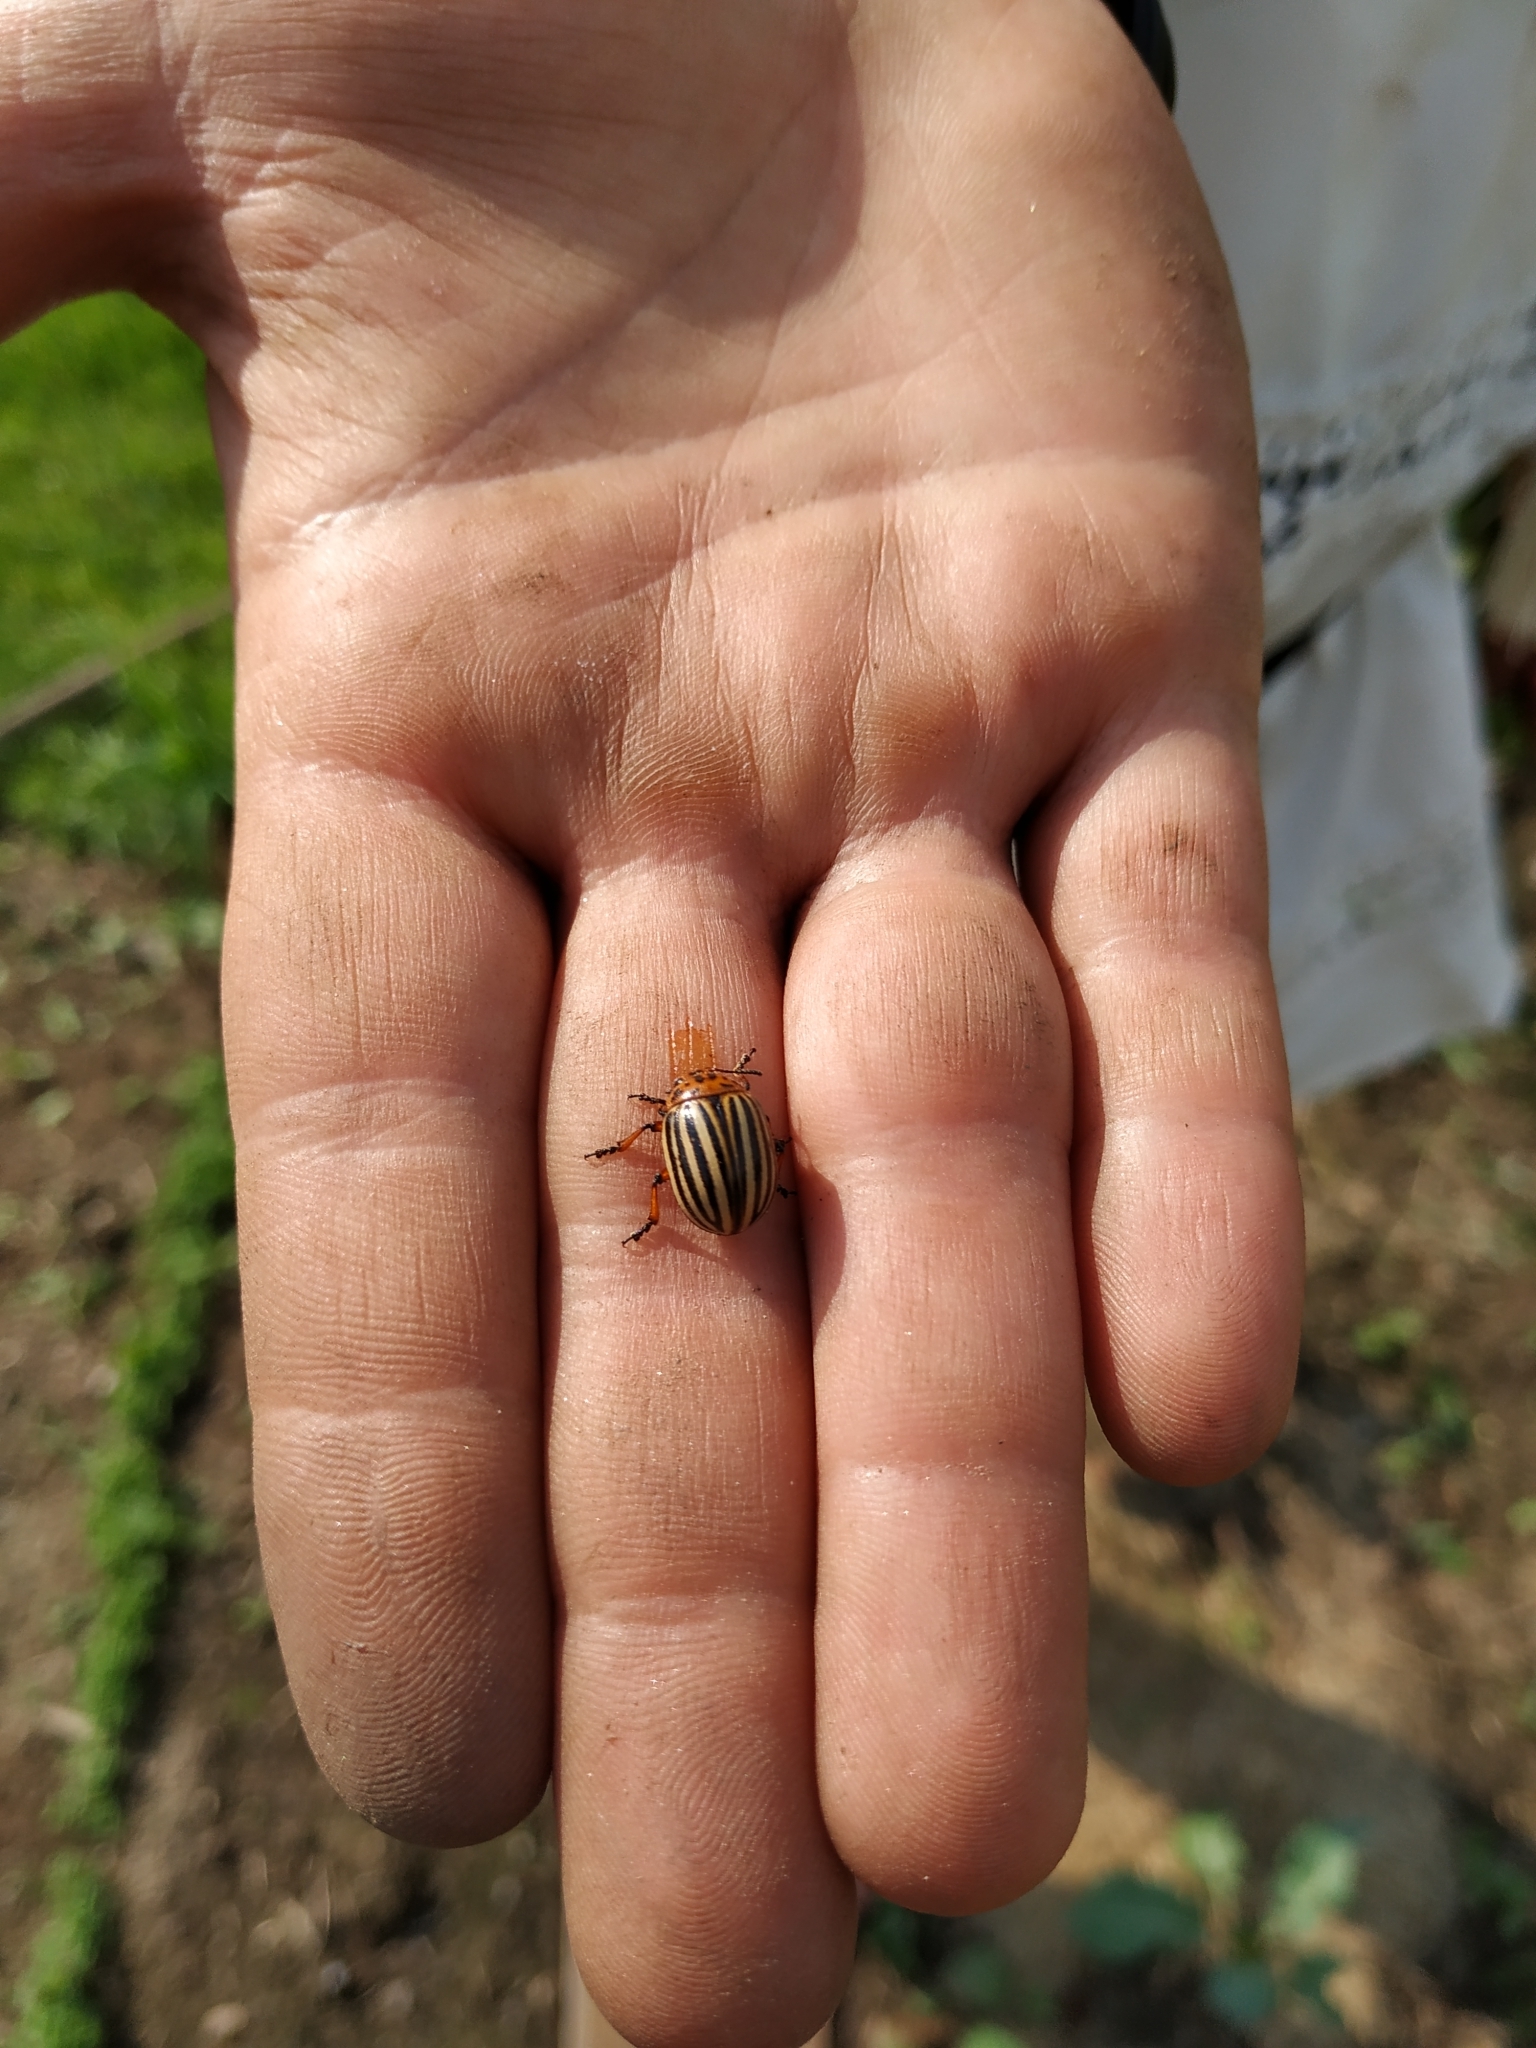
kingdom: Animalia
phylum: Arthropoda
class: Insecta
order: Coleoptera
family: Chrysomelidae
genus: Leptinotarsa
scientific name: Leptinotarsa decemlineata
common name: Colorado potato beetle
